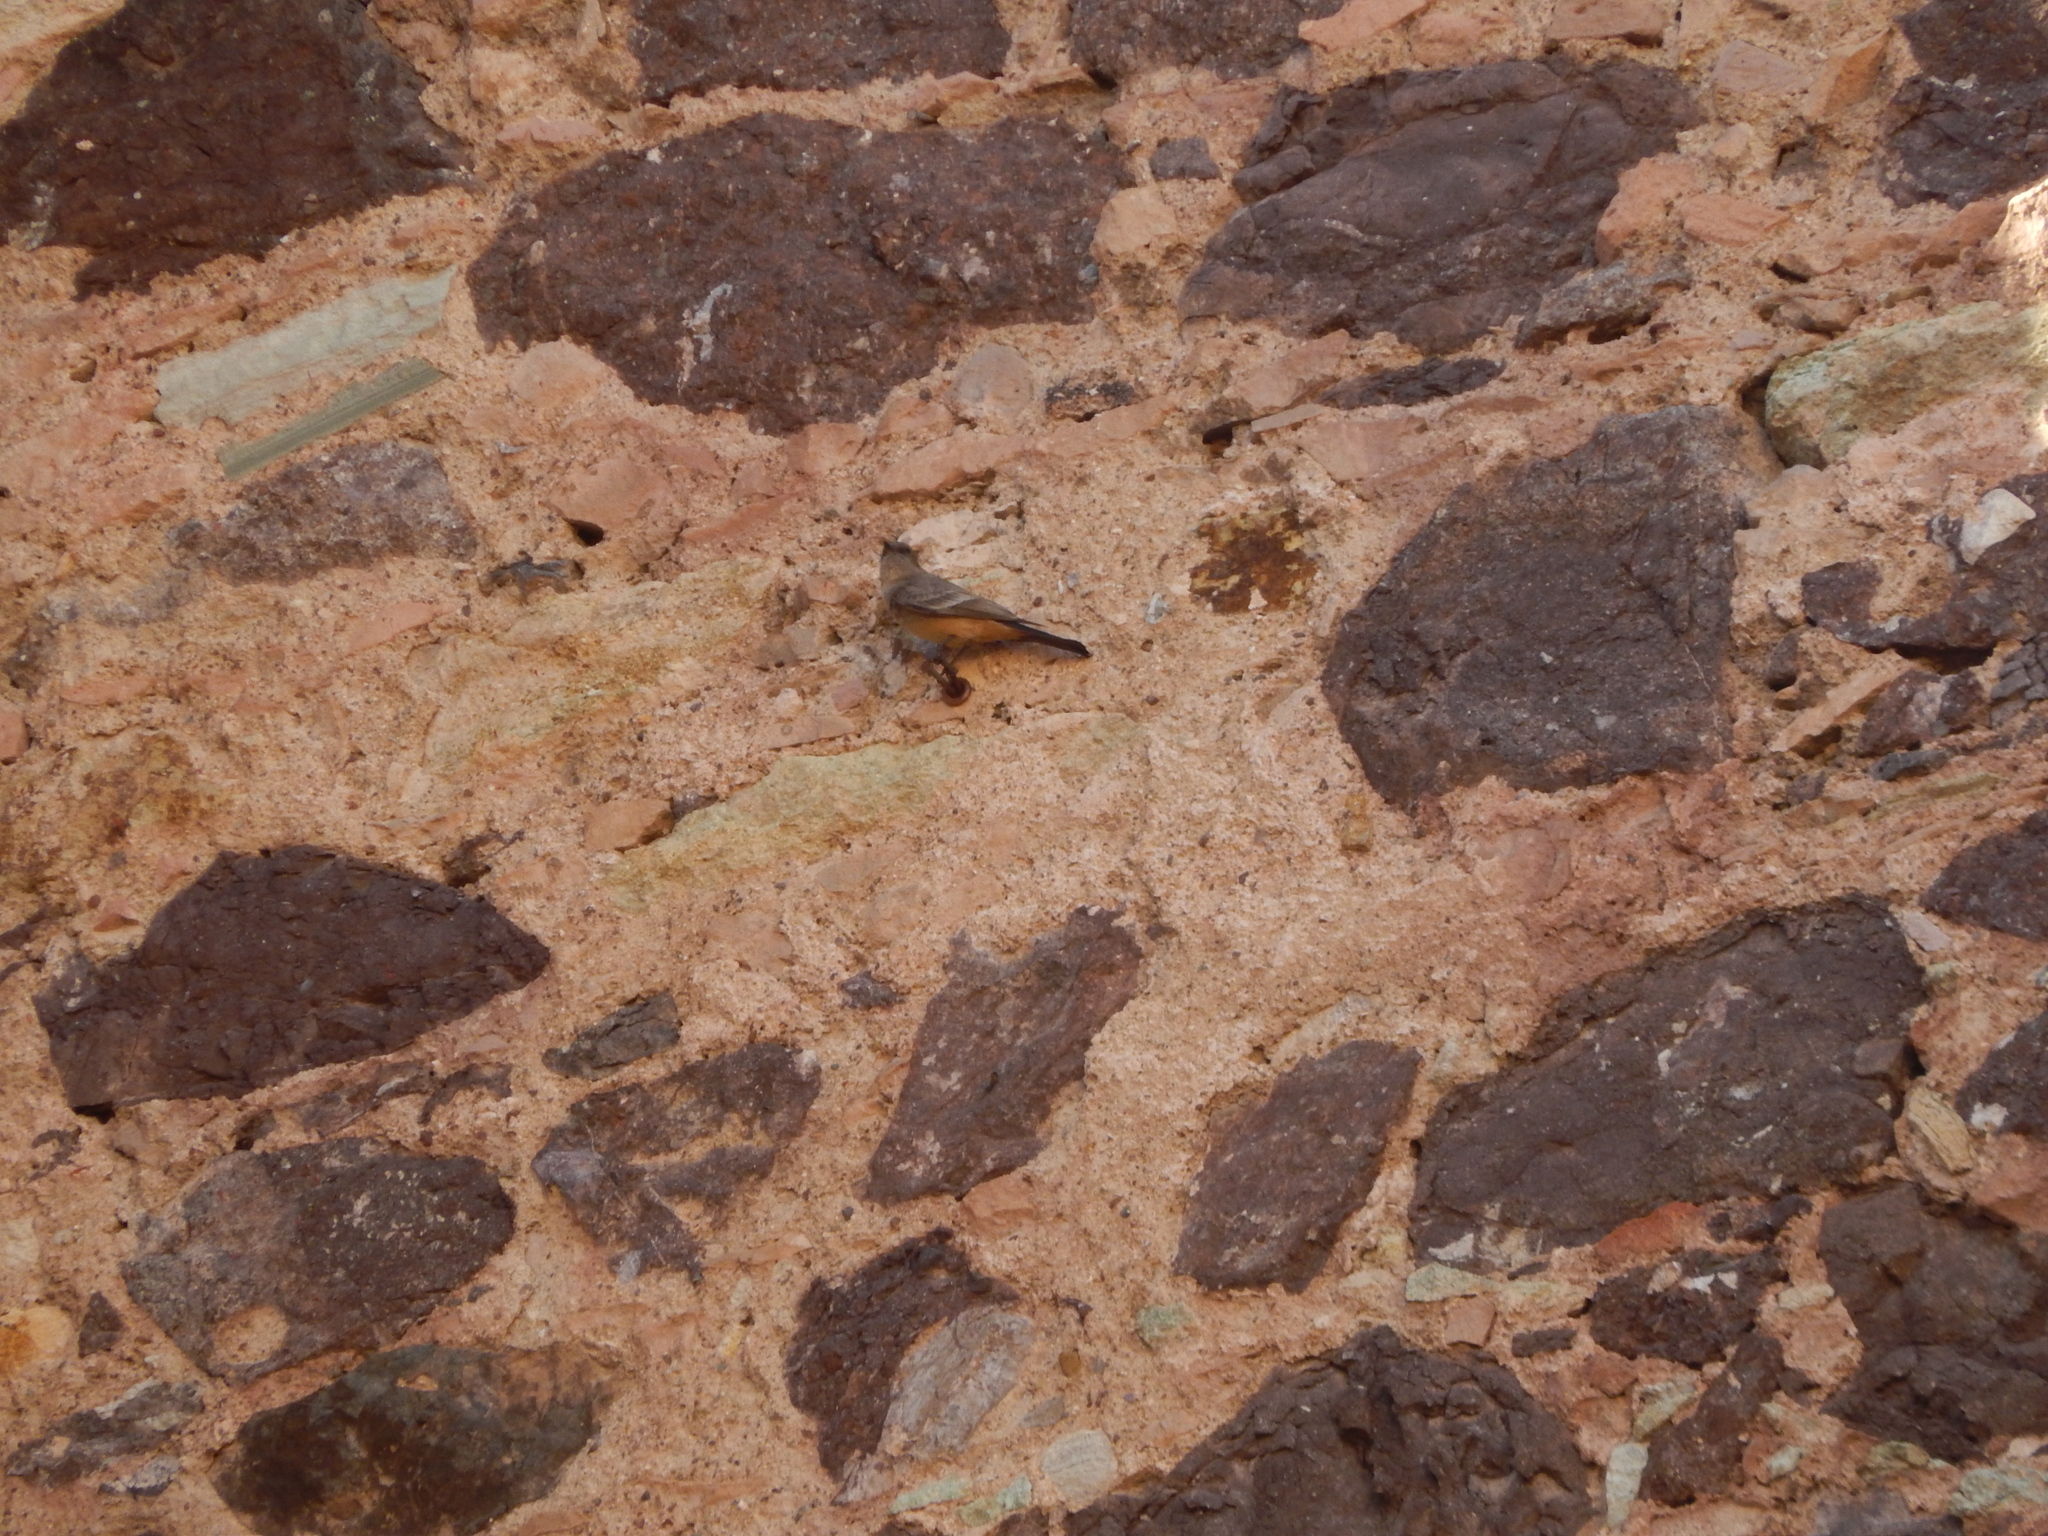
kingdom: Animalia
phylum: Chordata
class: Aves
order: Passeriformes
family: Tyrannidae
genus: Sayornis
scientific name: Sayornis saya
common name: Say's phoebe
